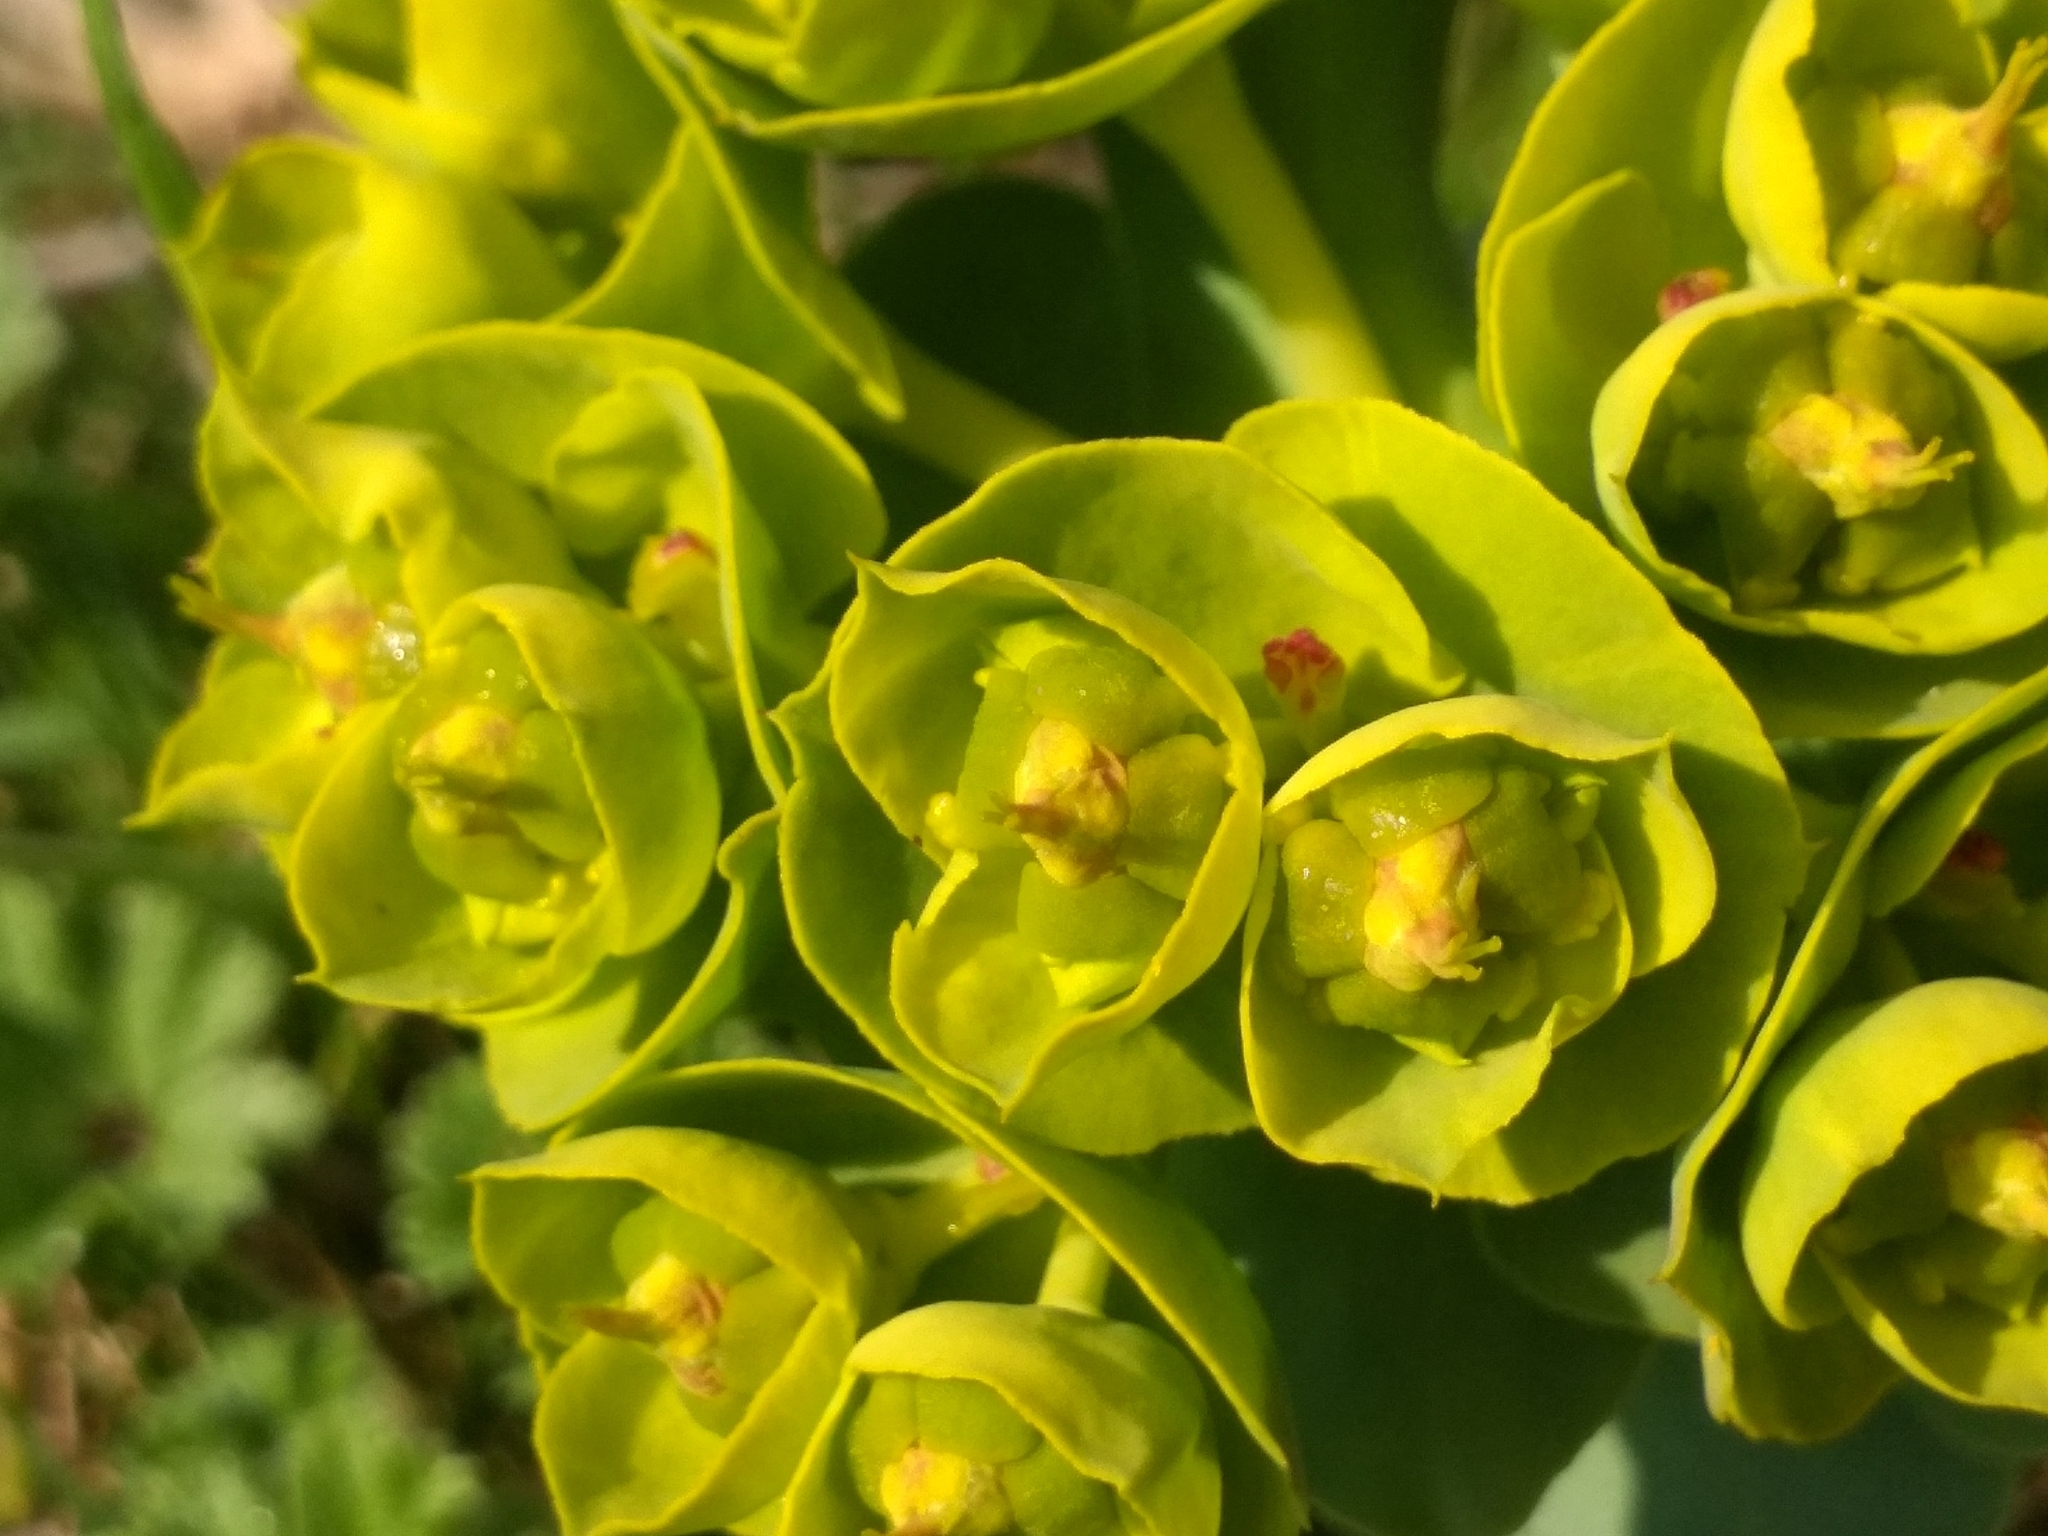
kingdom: Plantae
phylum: Tracheophyta
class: Magnoliopsida
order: Malpighiales
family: Euphorbiaceae
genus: Euphorbia
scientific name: Euphorbia myrsinites
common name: Myrtle spurge
